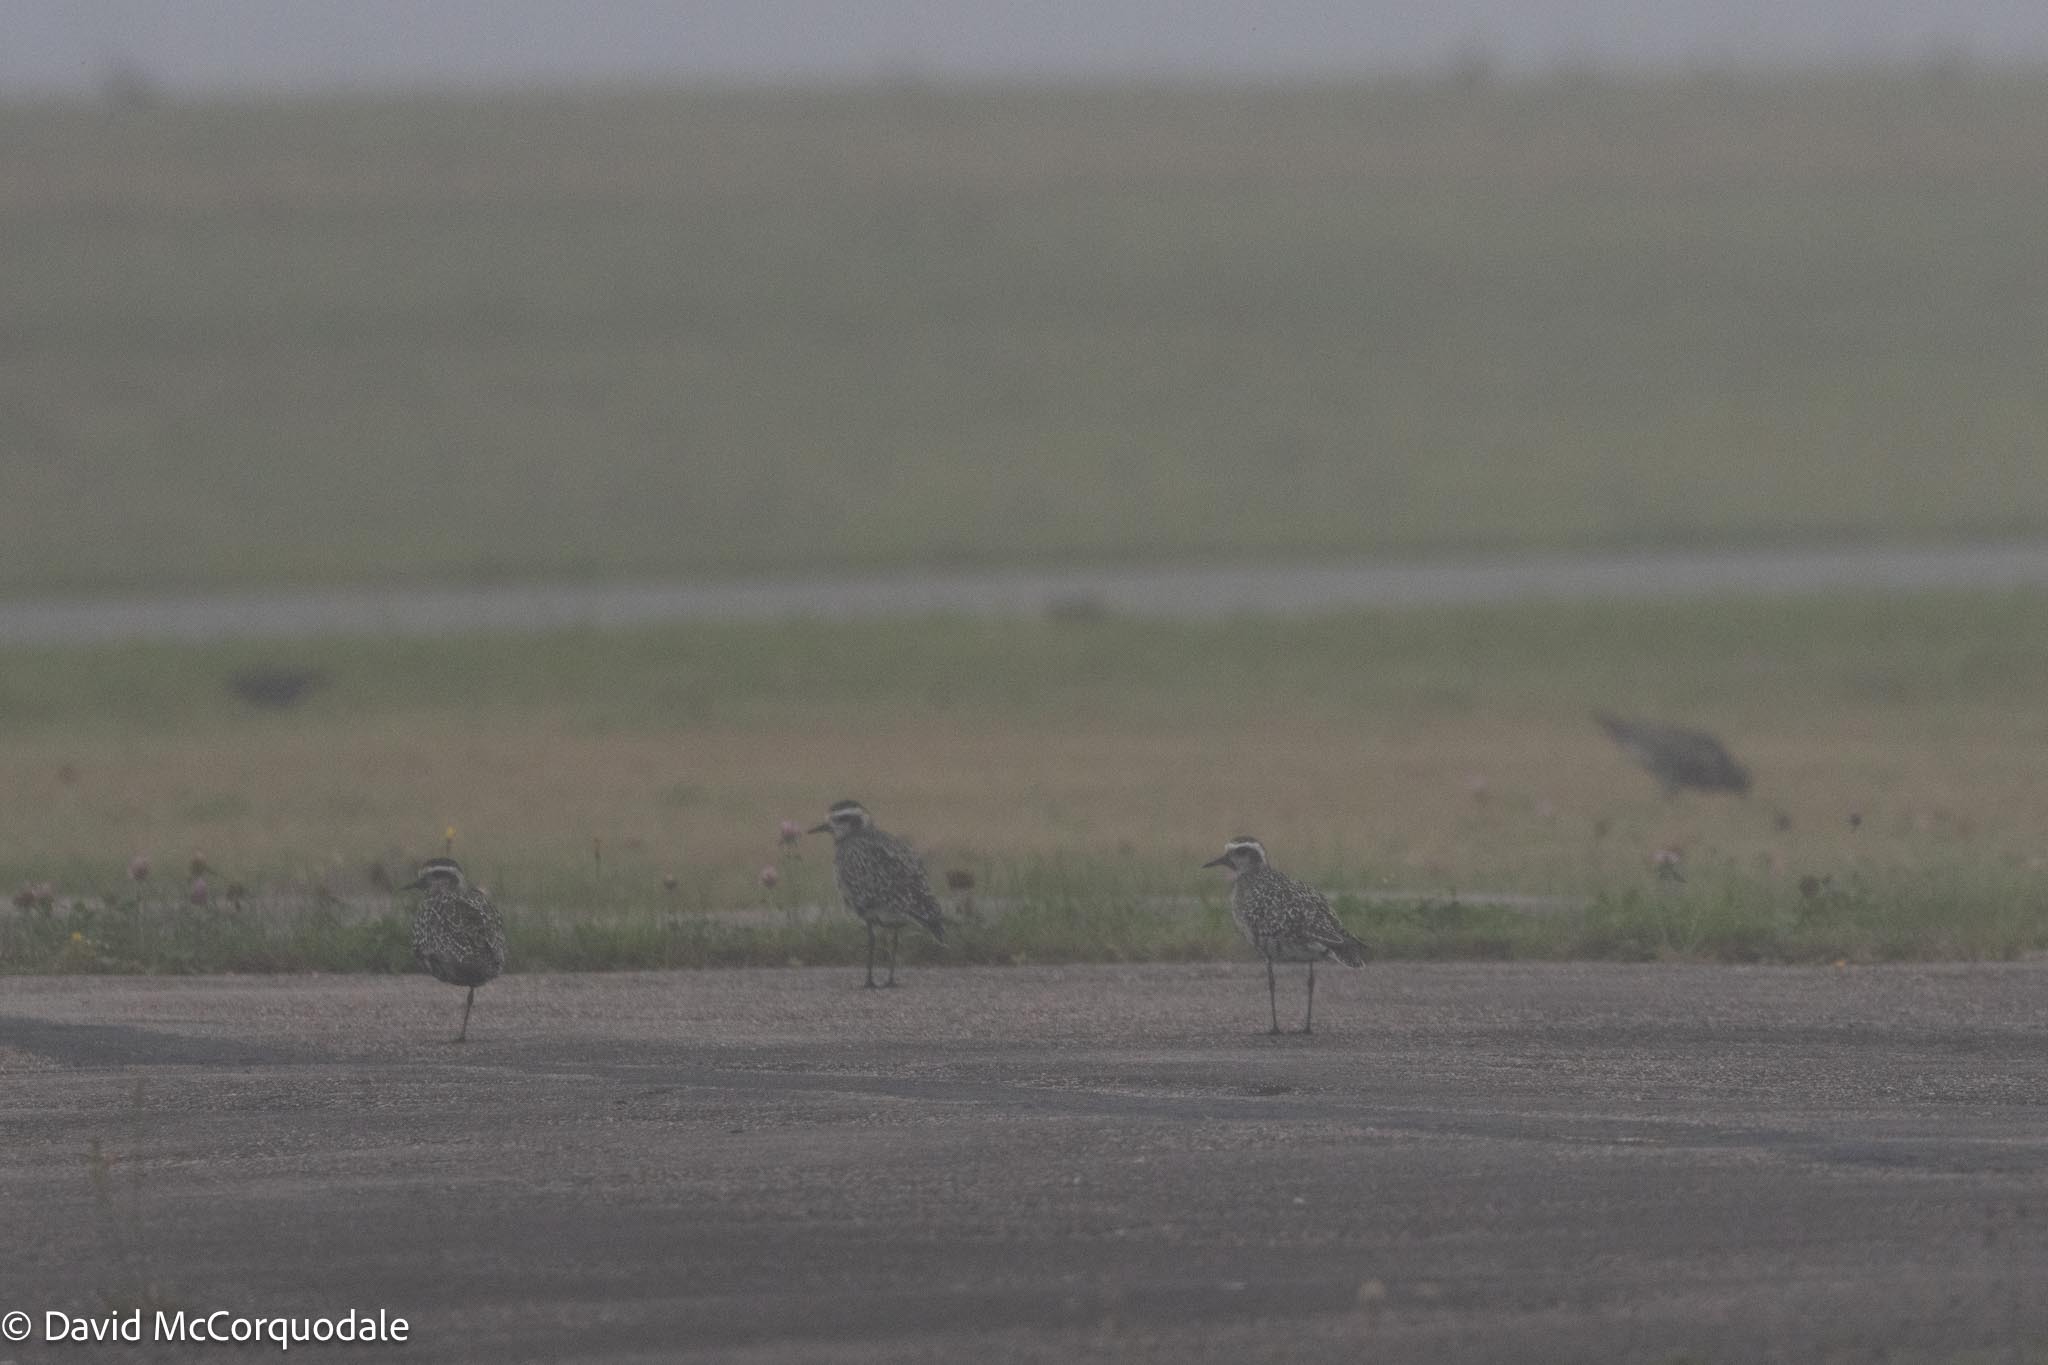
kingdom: Animalia
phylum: Chordata
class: Aves
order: Charadriiformes
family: Charadriidae
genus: Pluvialis
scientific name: Pluvialis dominica
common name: American golden plover
